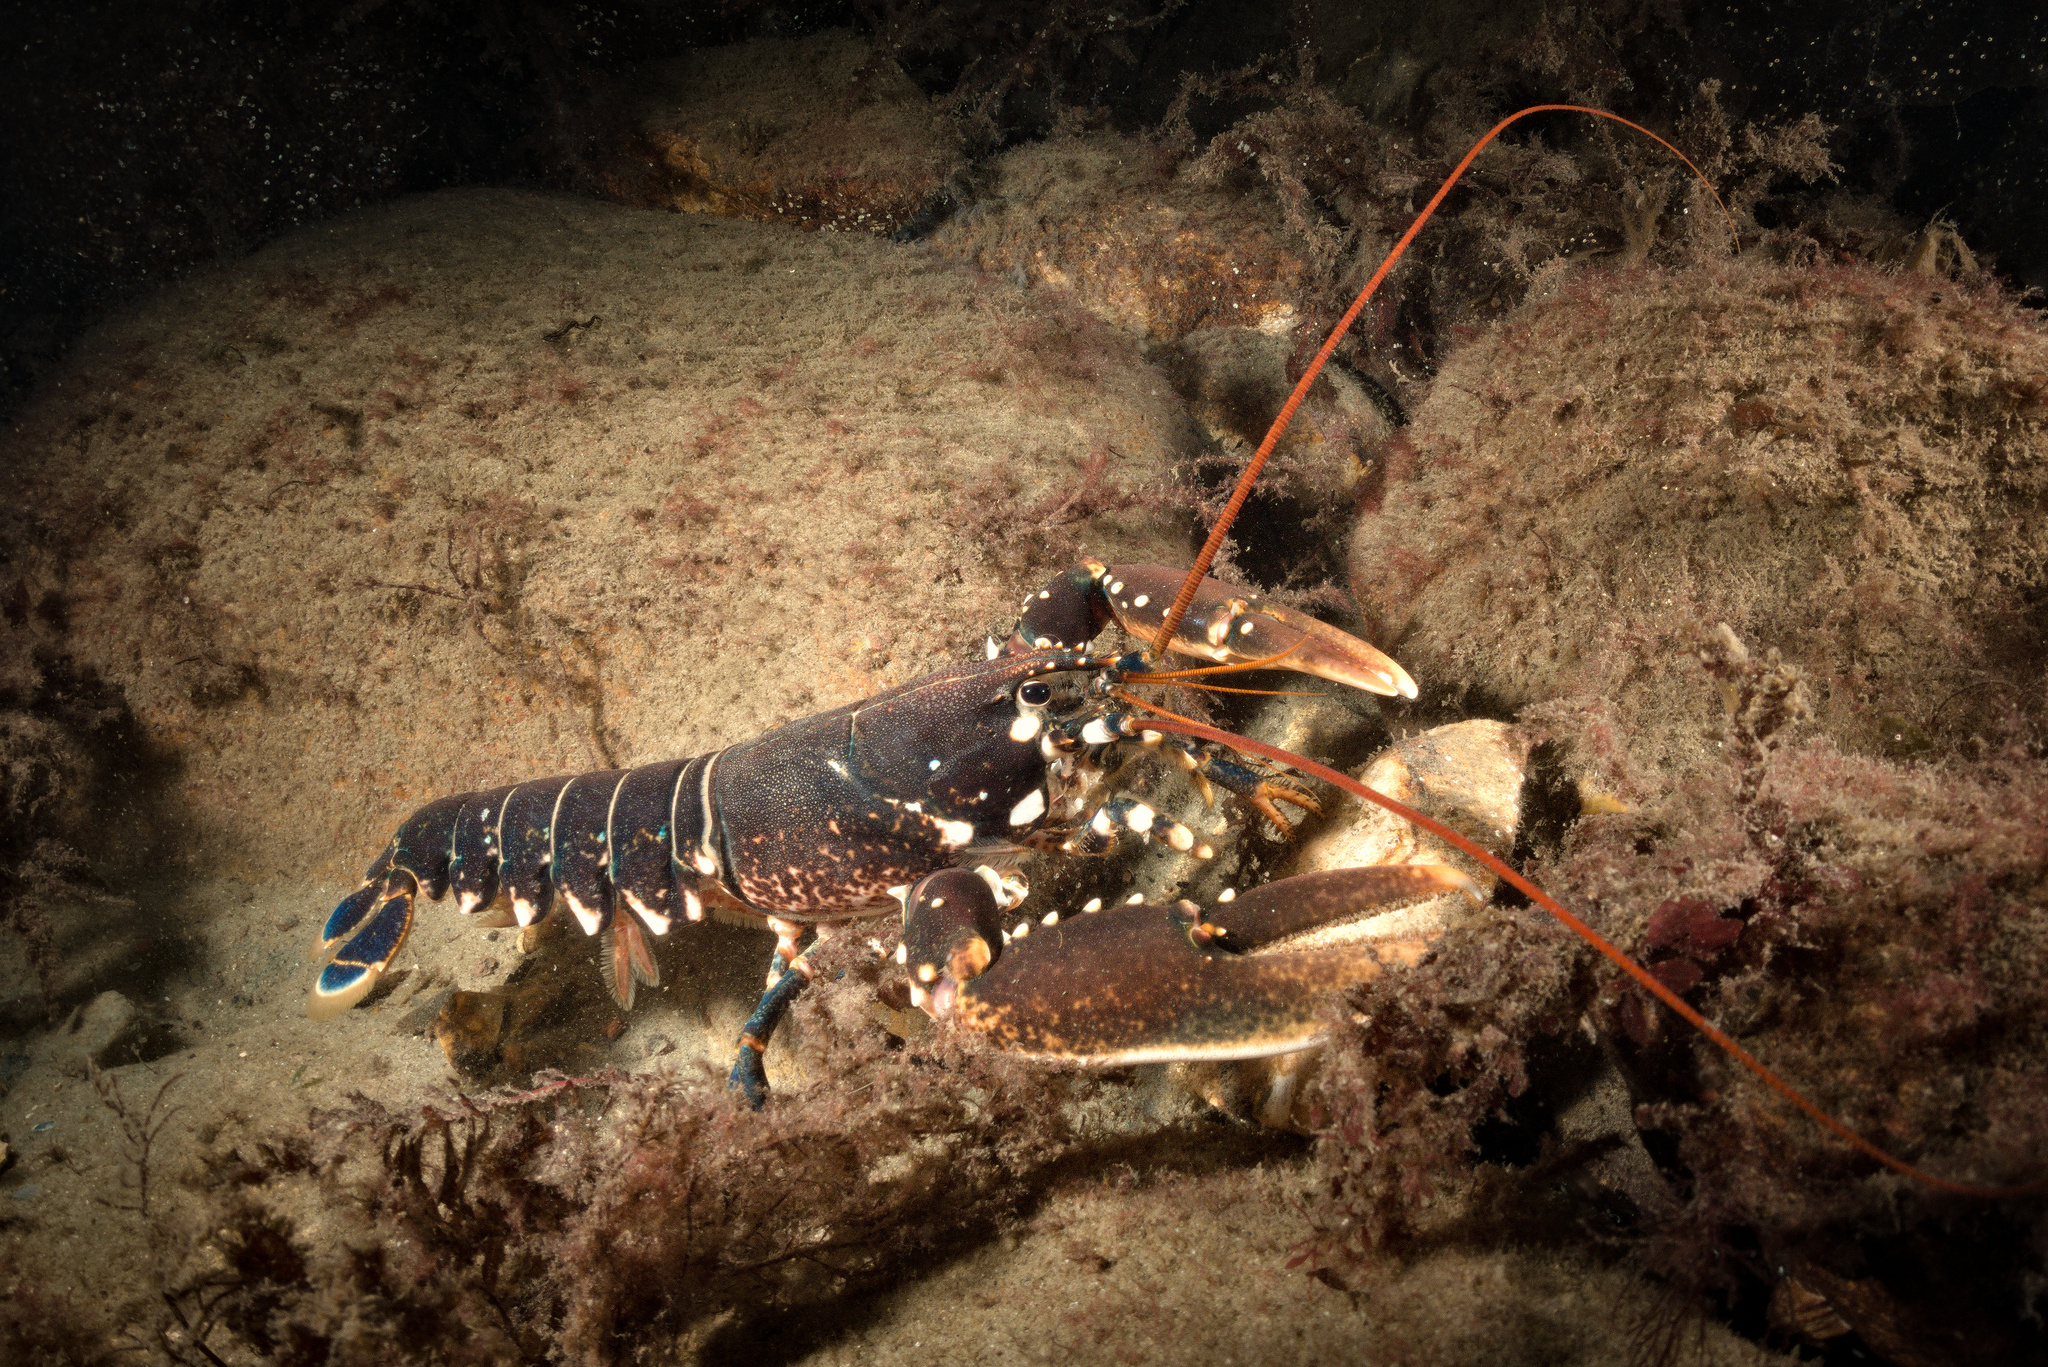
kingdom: Animalia
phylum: Arthropoda
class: Malacostraca
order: Decapoda
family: Nephropidae
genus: Homarus
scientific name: Homarus gammarus
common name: European lobster
